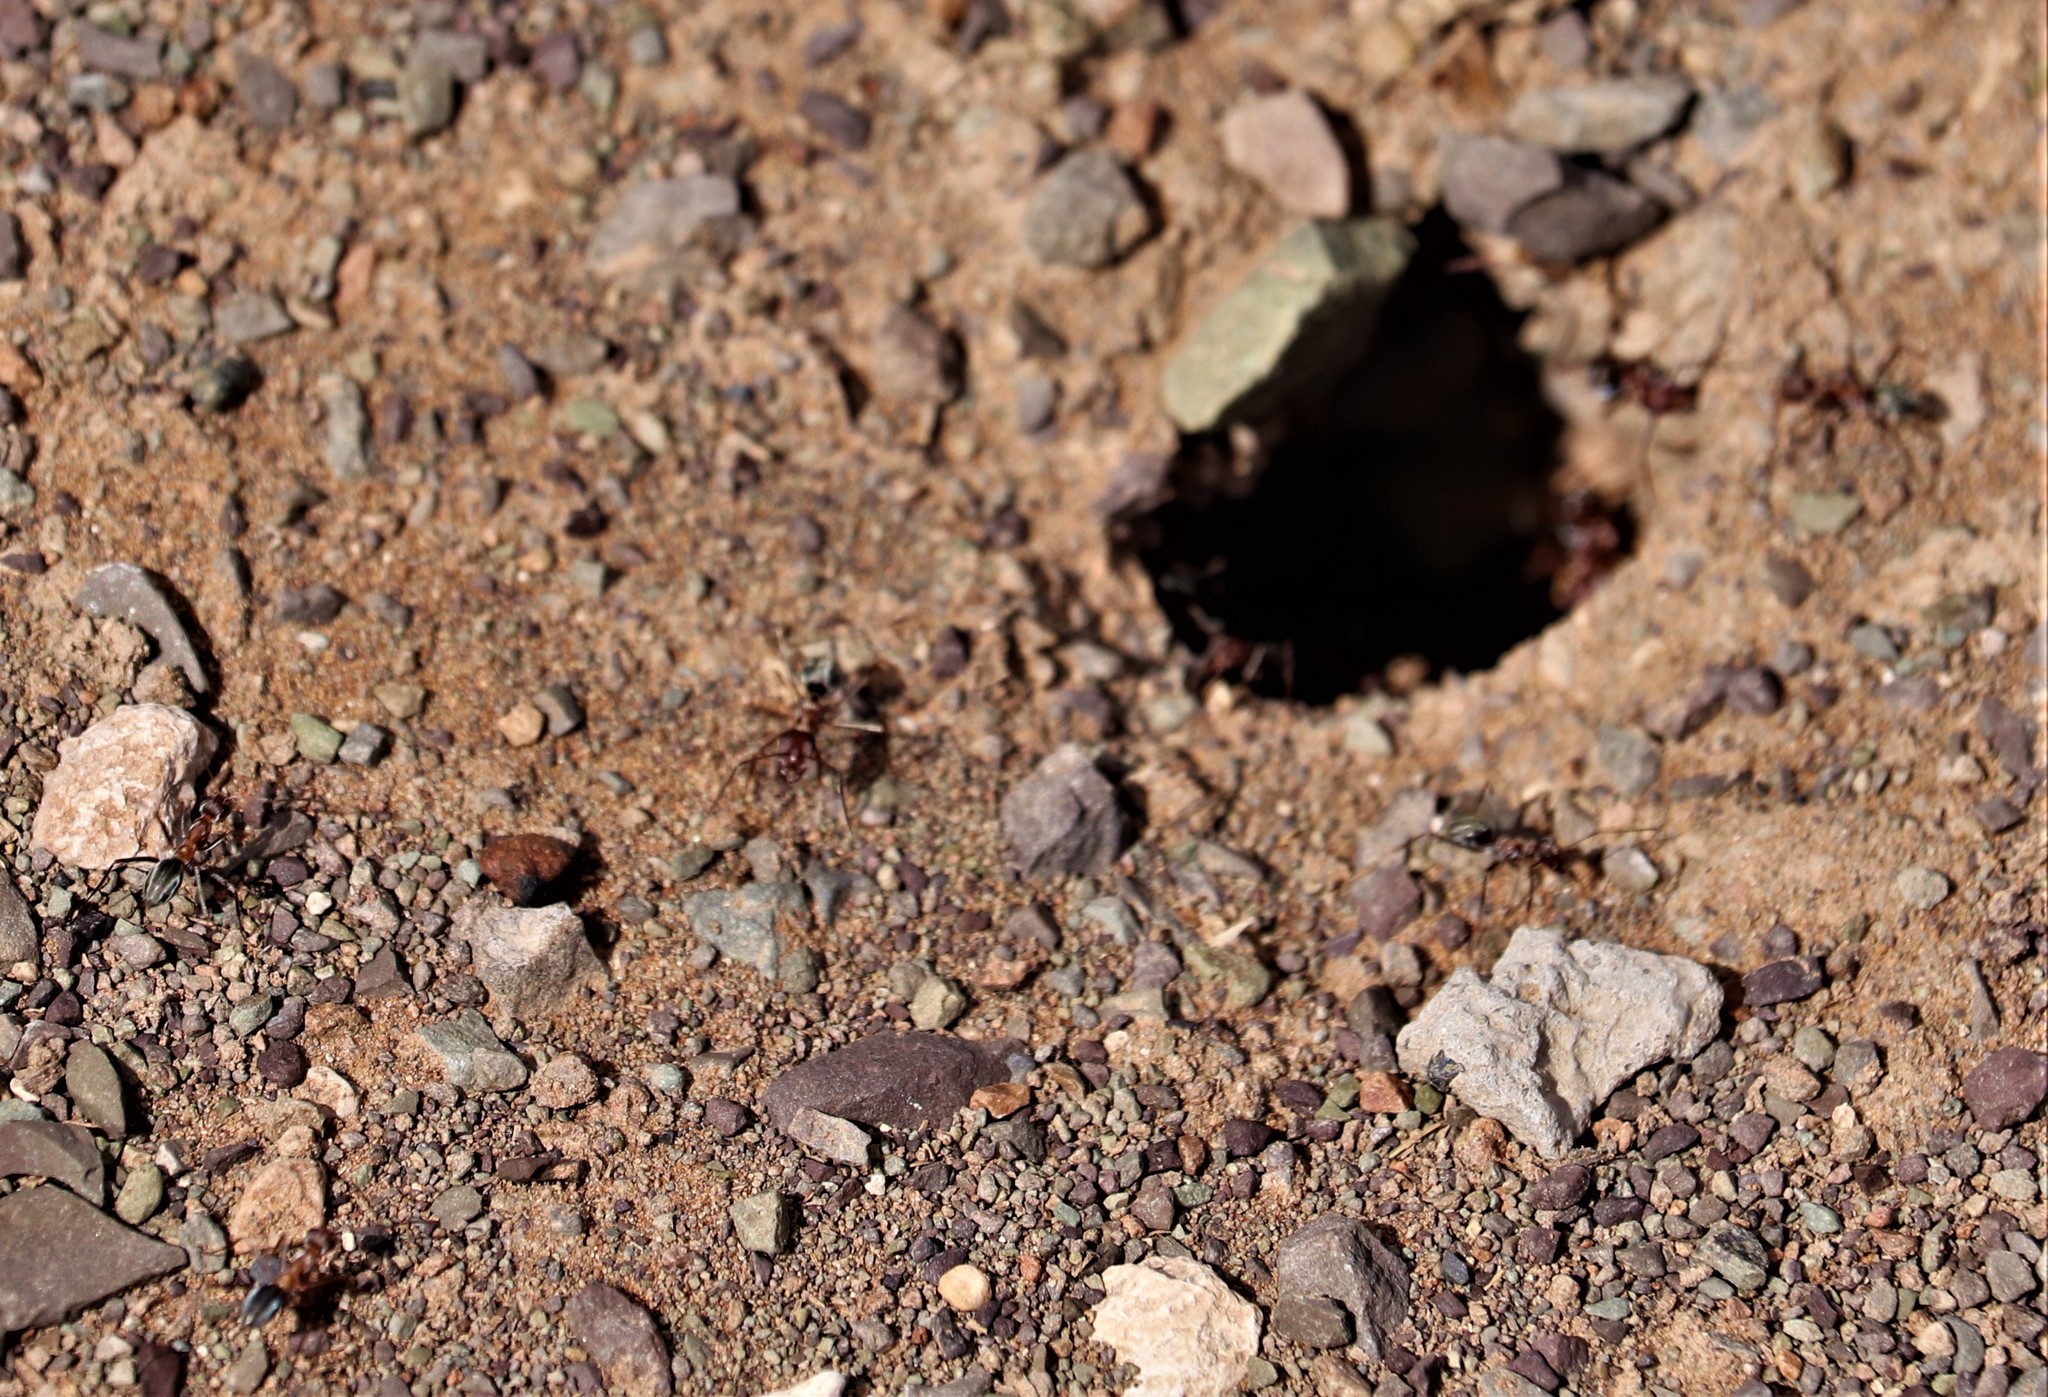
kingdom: Animalia
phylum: Arthropoda
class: Insecta
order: Hymenoptera
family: Formicidae
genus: Anoplolepis
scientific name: Anoplolepis custodiens
